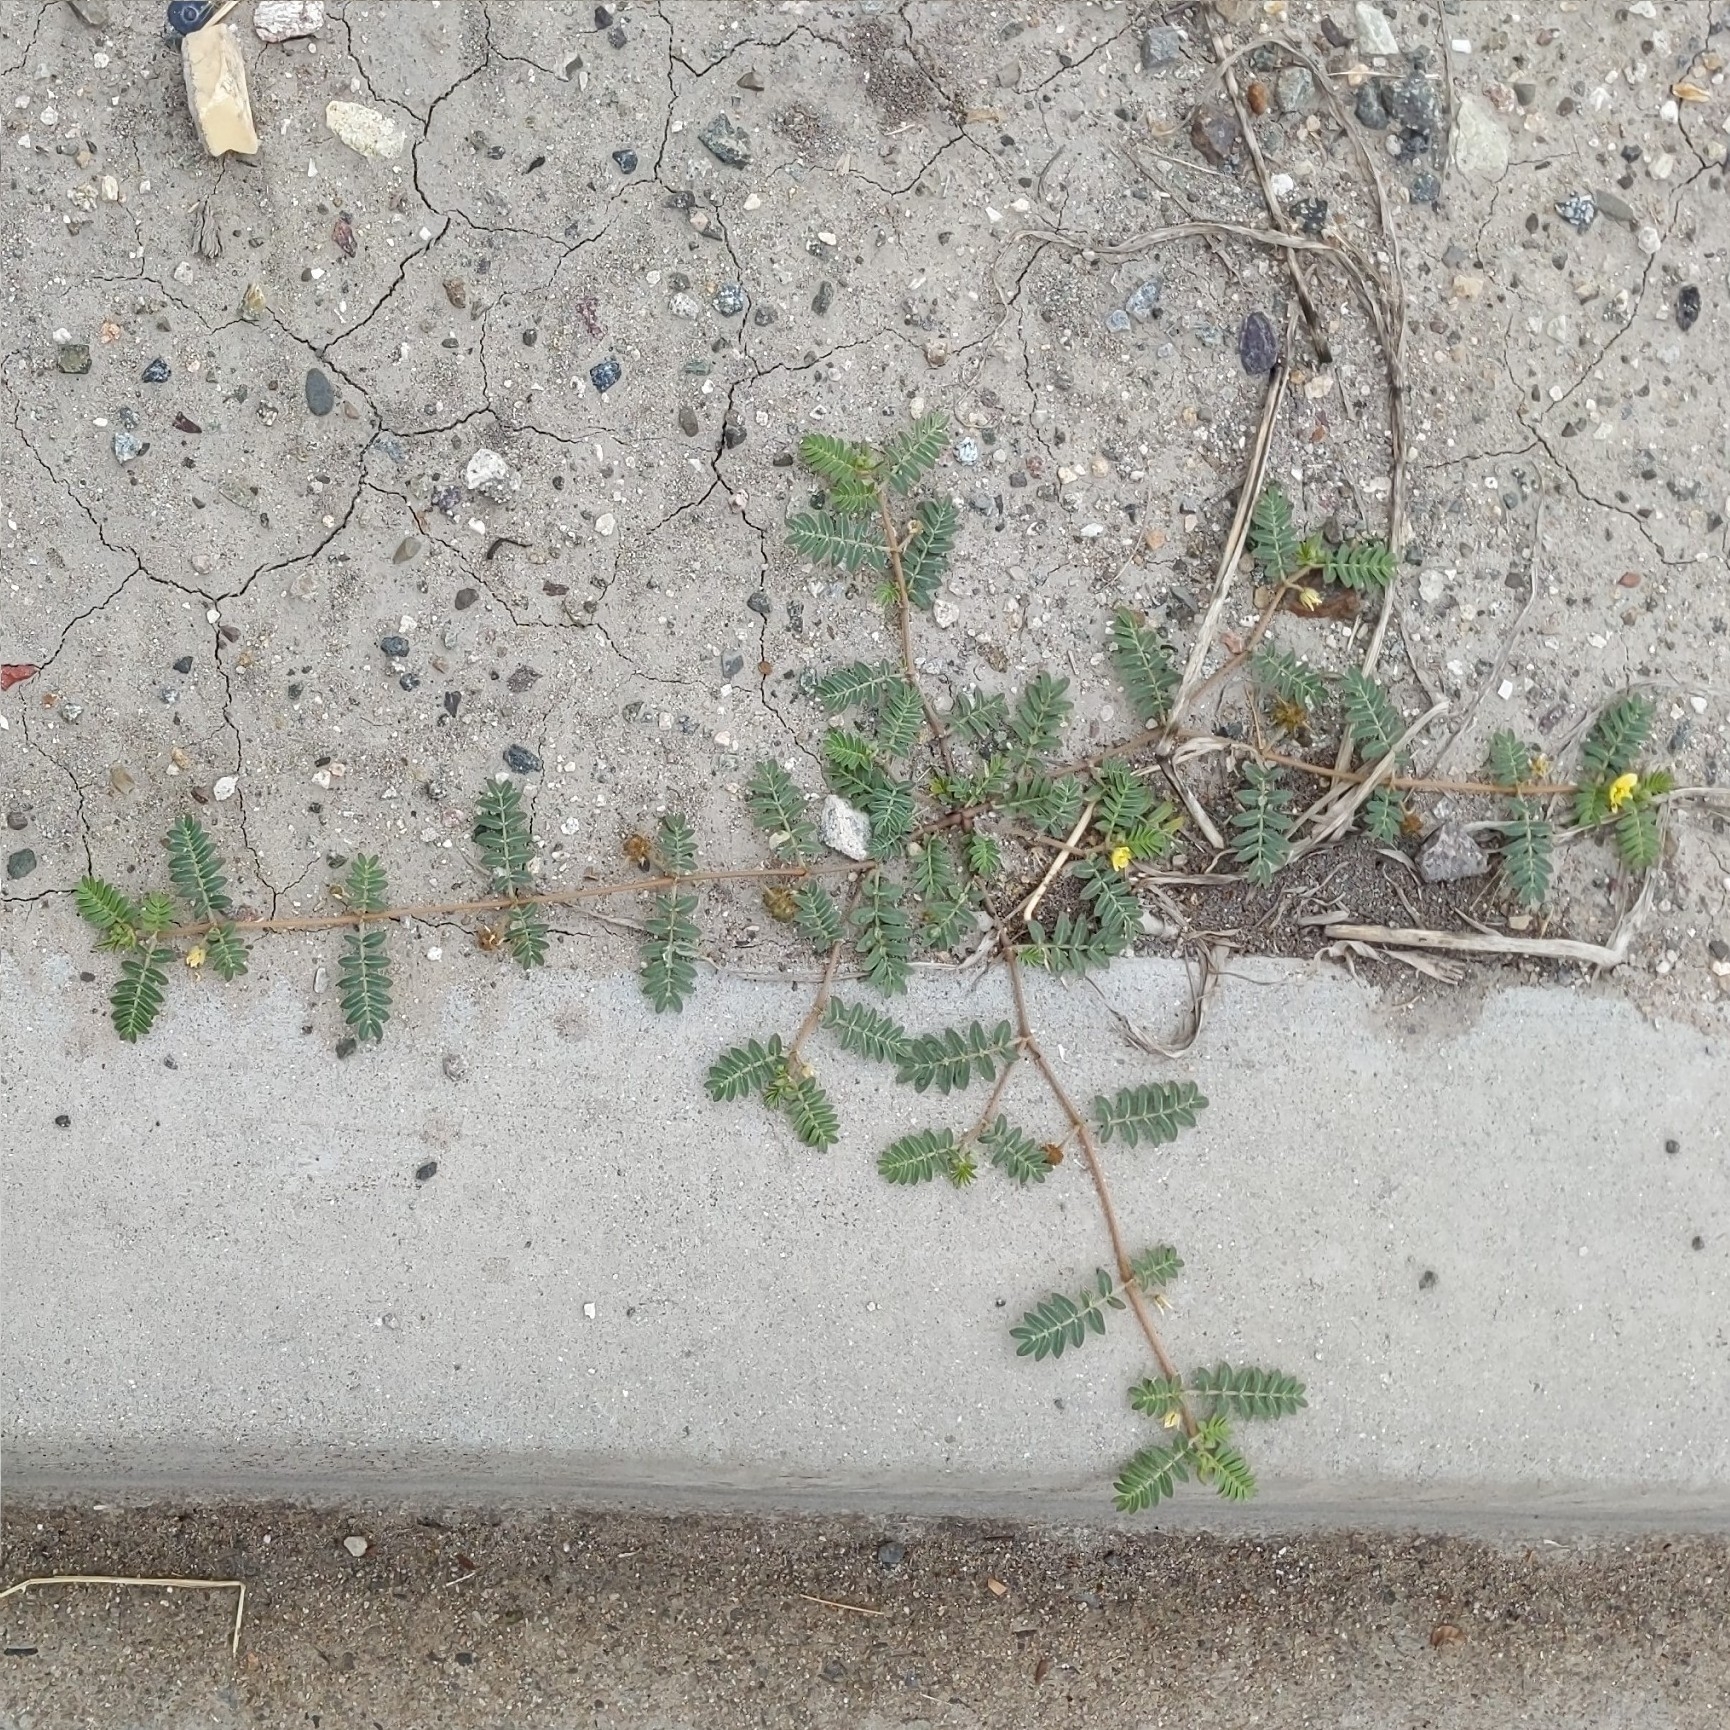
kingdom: Plantae
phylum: Tracheophyta
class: Magnoliopsida
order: Zygophyllales
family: Zygophyllaceae
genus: Tribulus
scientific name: Tribulus terrestris
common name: Puncturevine
